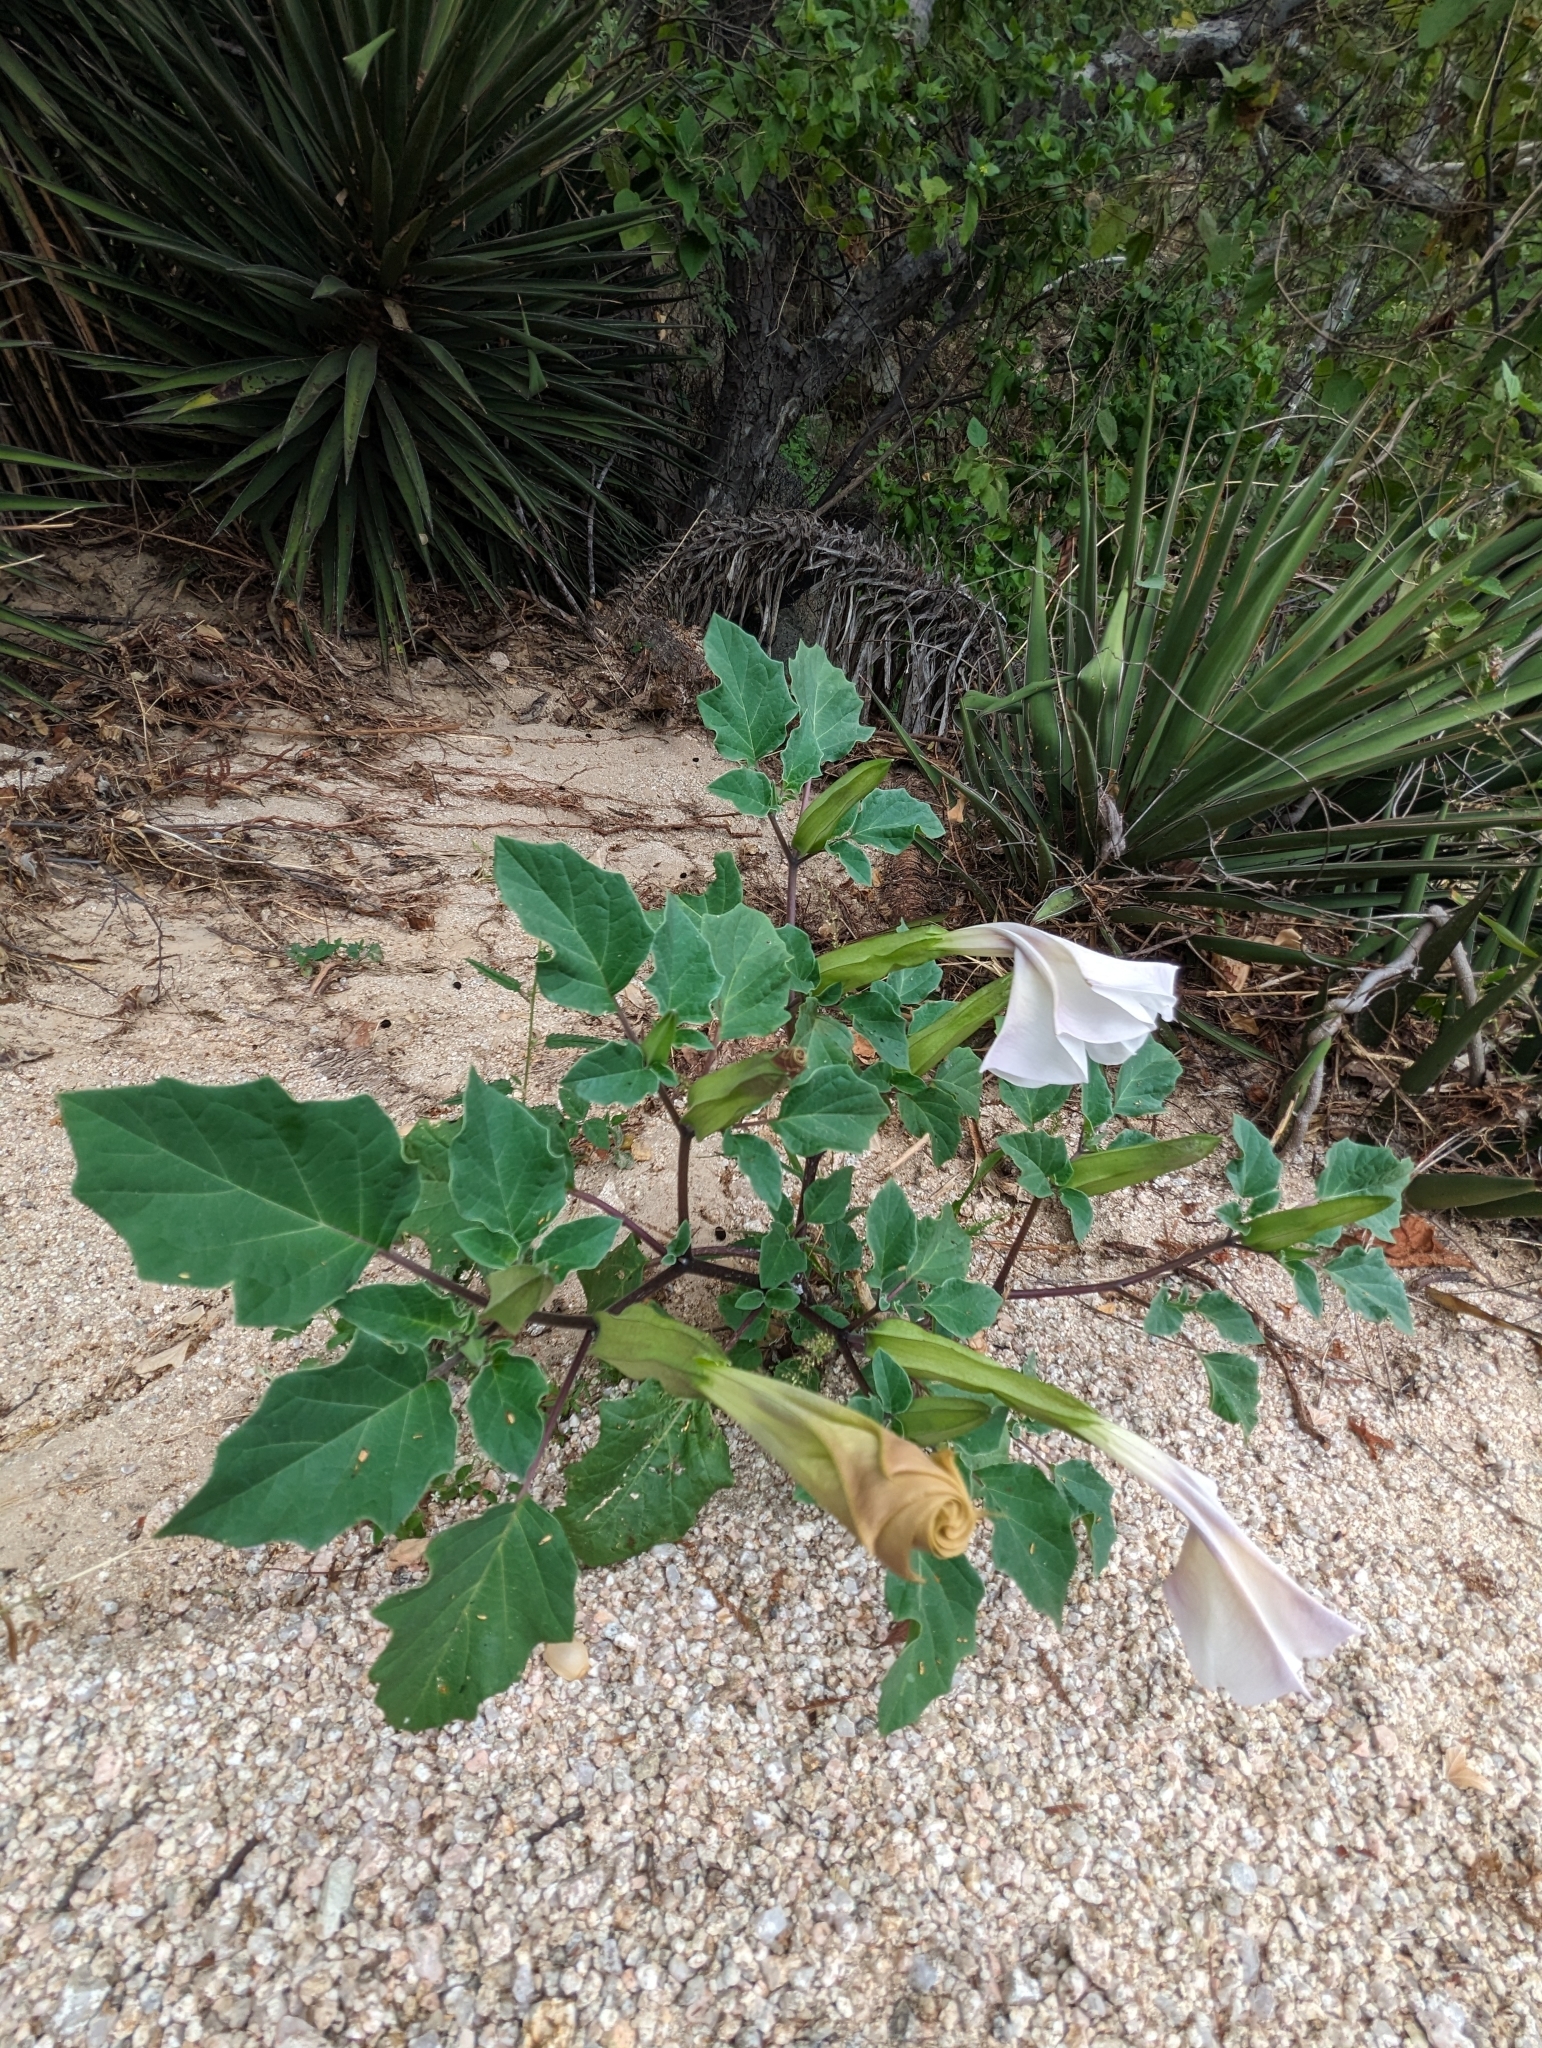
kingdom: Plantae
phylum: Tracheophyta
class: Magnoliopsida
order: Solanales
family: Solanaceae
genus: Datura
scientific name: Datura discolor
